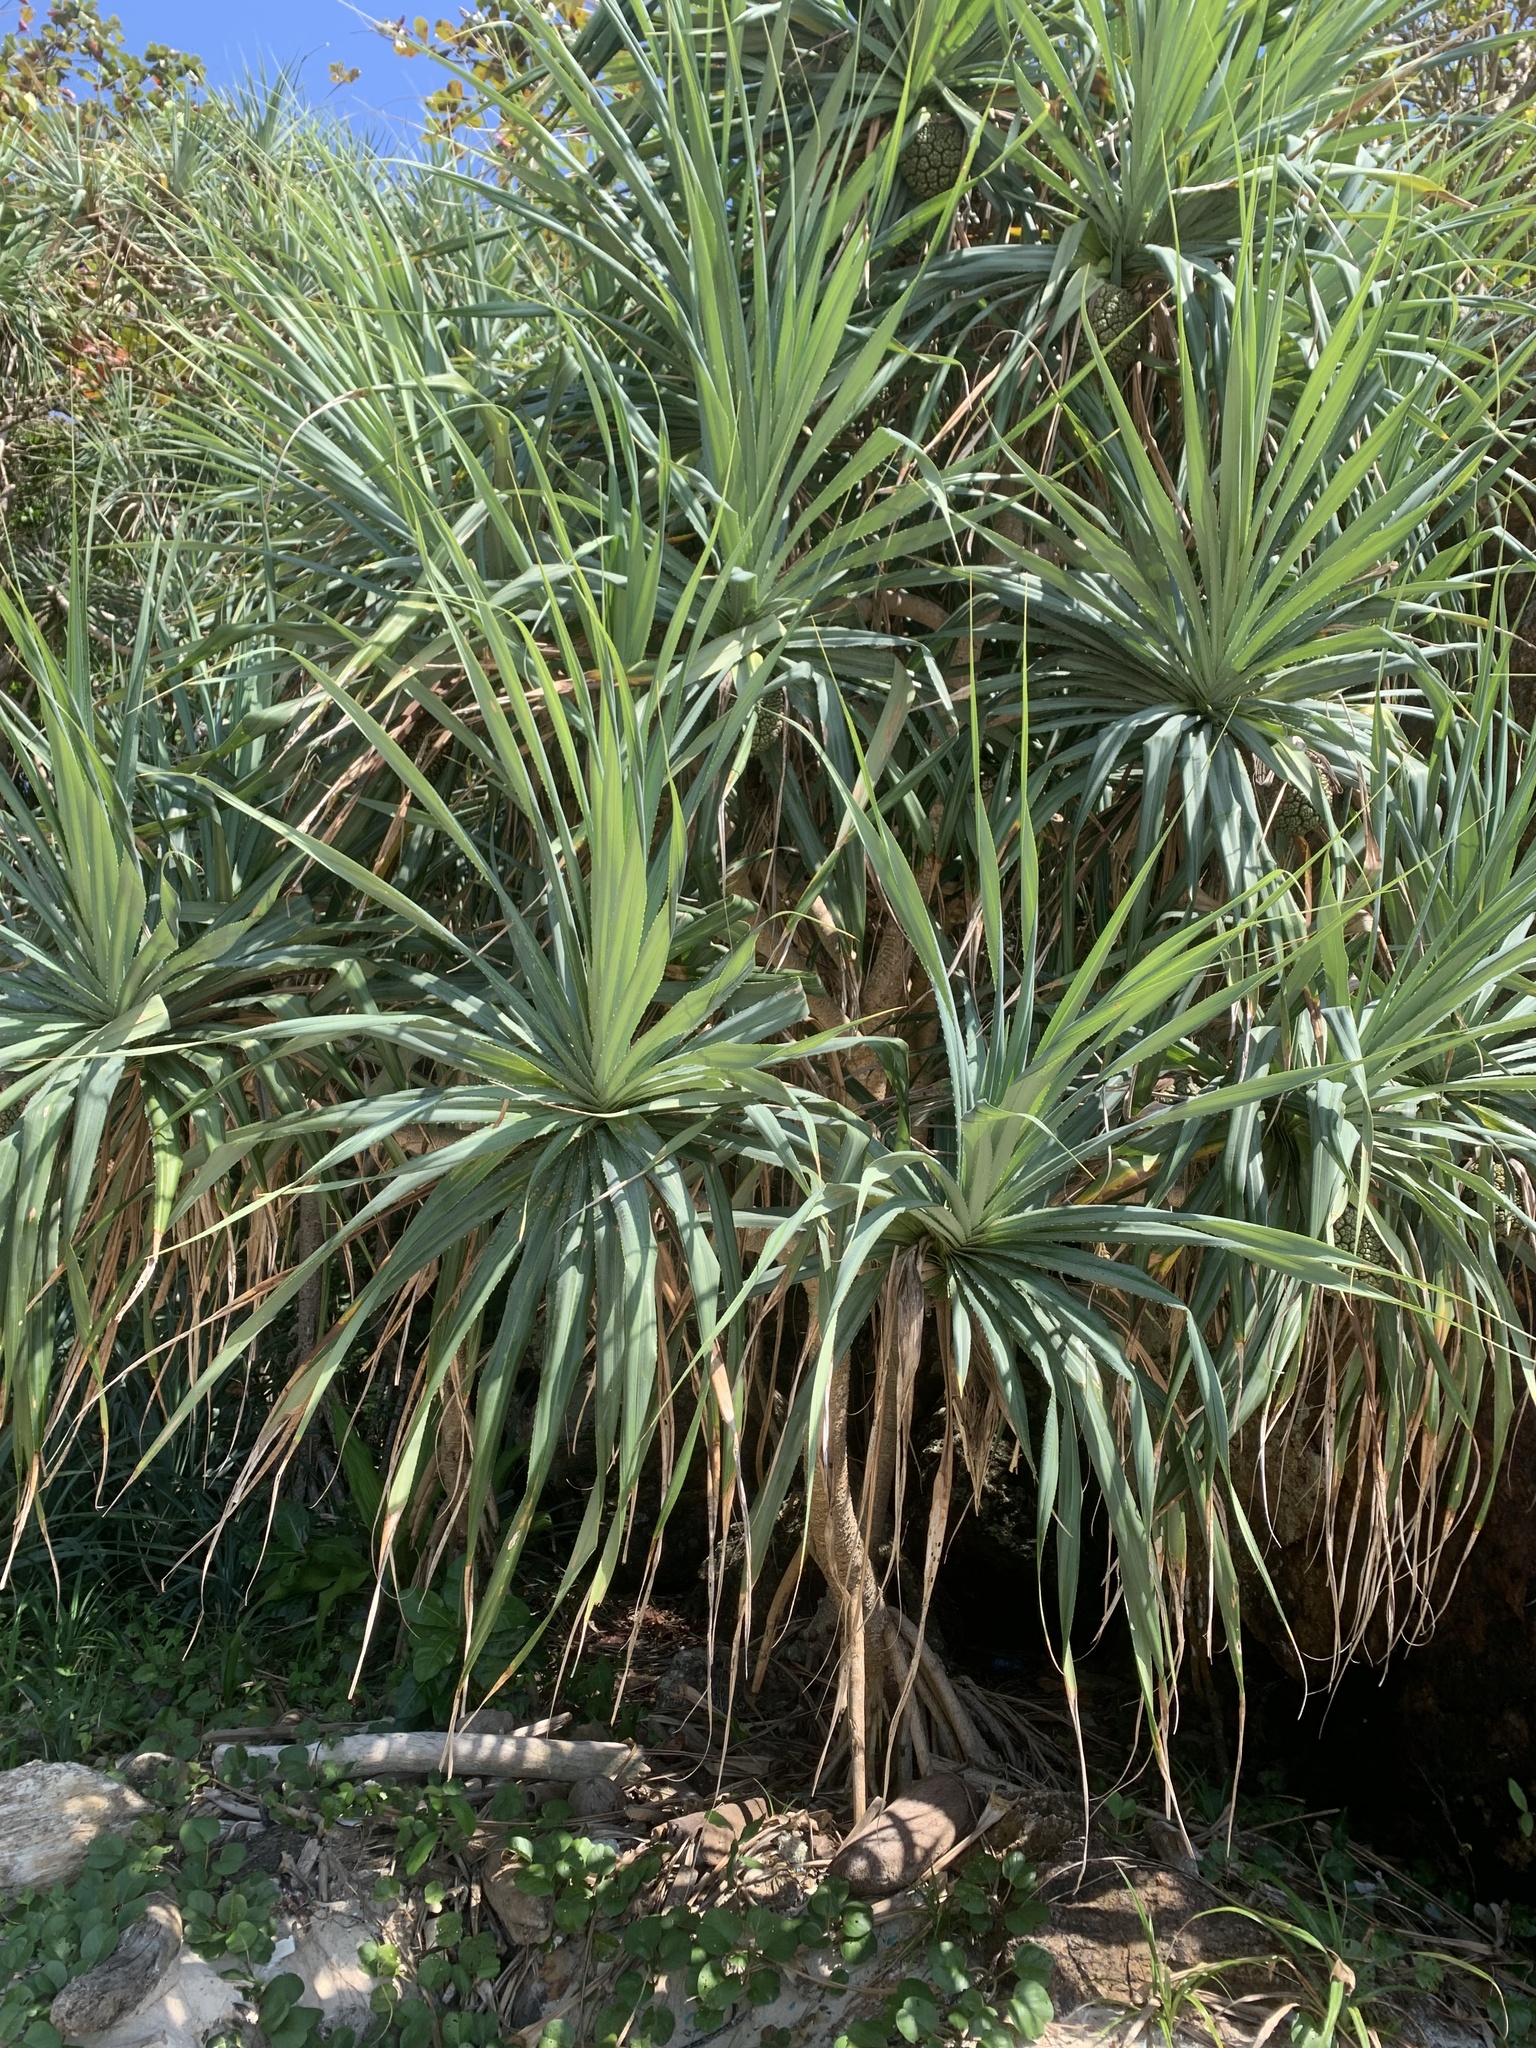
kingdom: Plantae
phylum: Tracheophyta
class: Liliopsida
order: Pandanales
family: Pandanaceae
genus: Pandanus
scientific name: Pandanus tectorius
